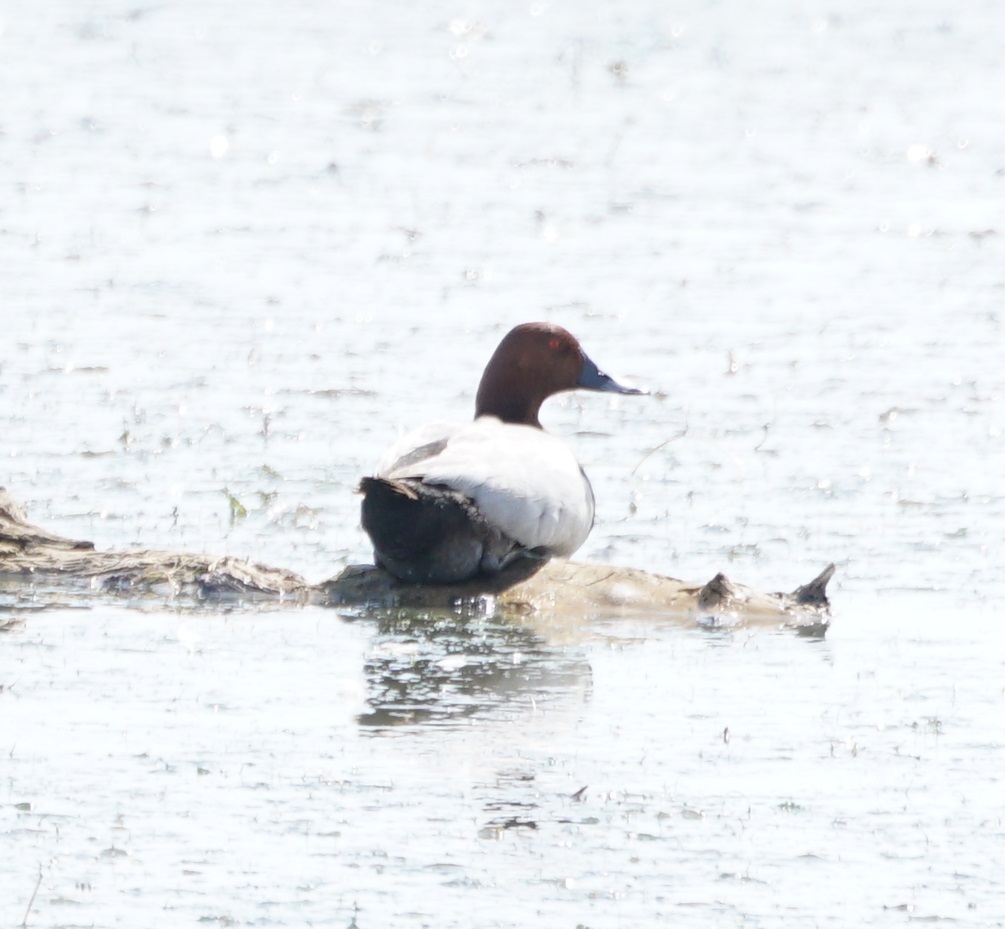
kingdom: Animalia
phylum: Chordata
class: Aves
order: Anseriformes
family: Anatidae
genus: Aythya
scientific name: Aythya ferina
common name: Common pochard
